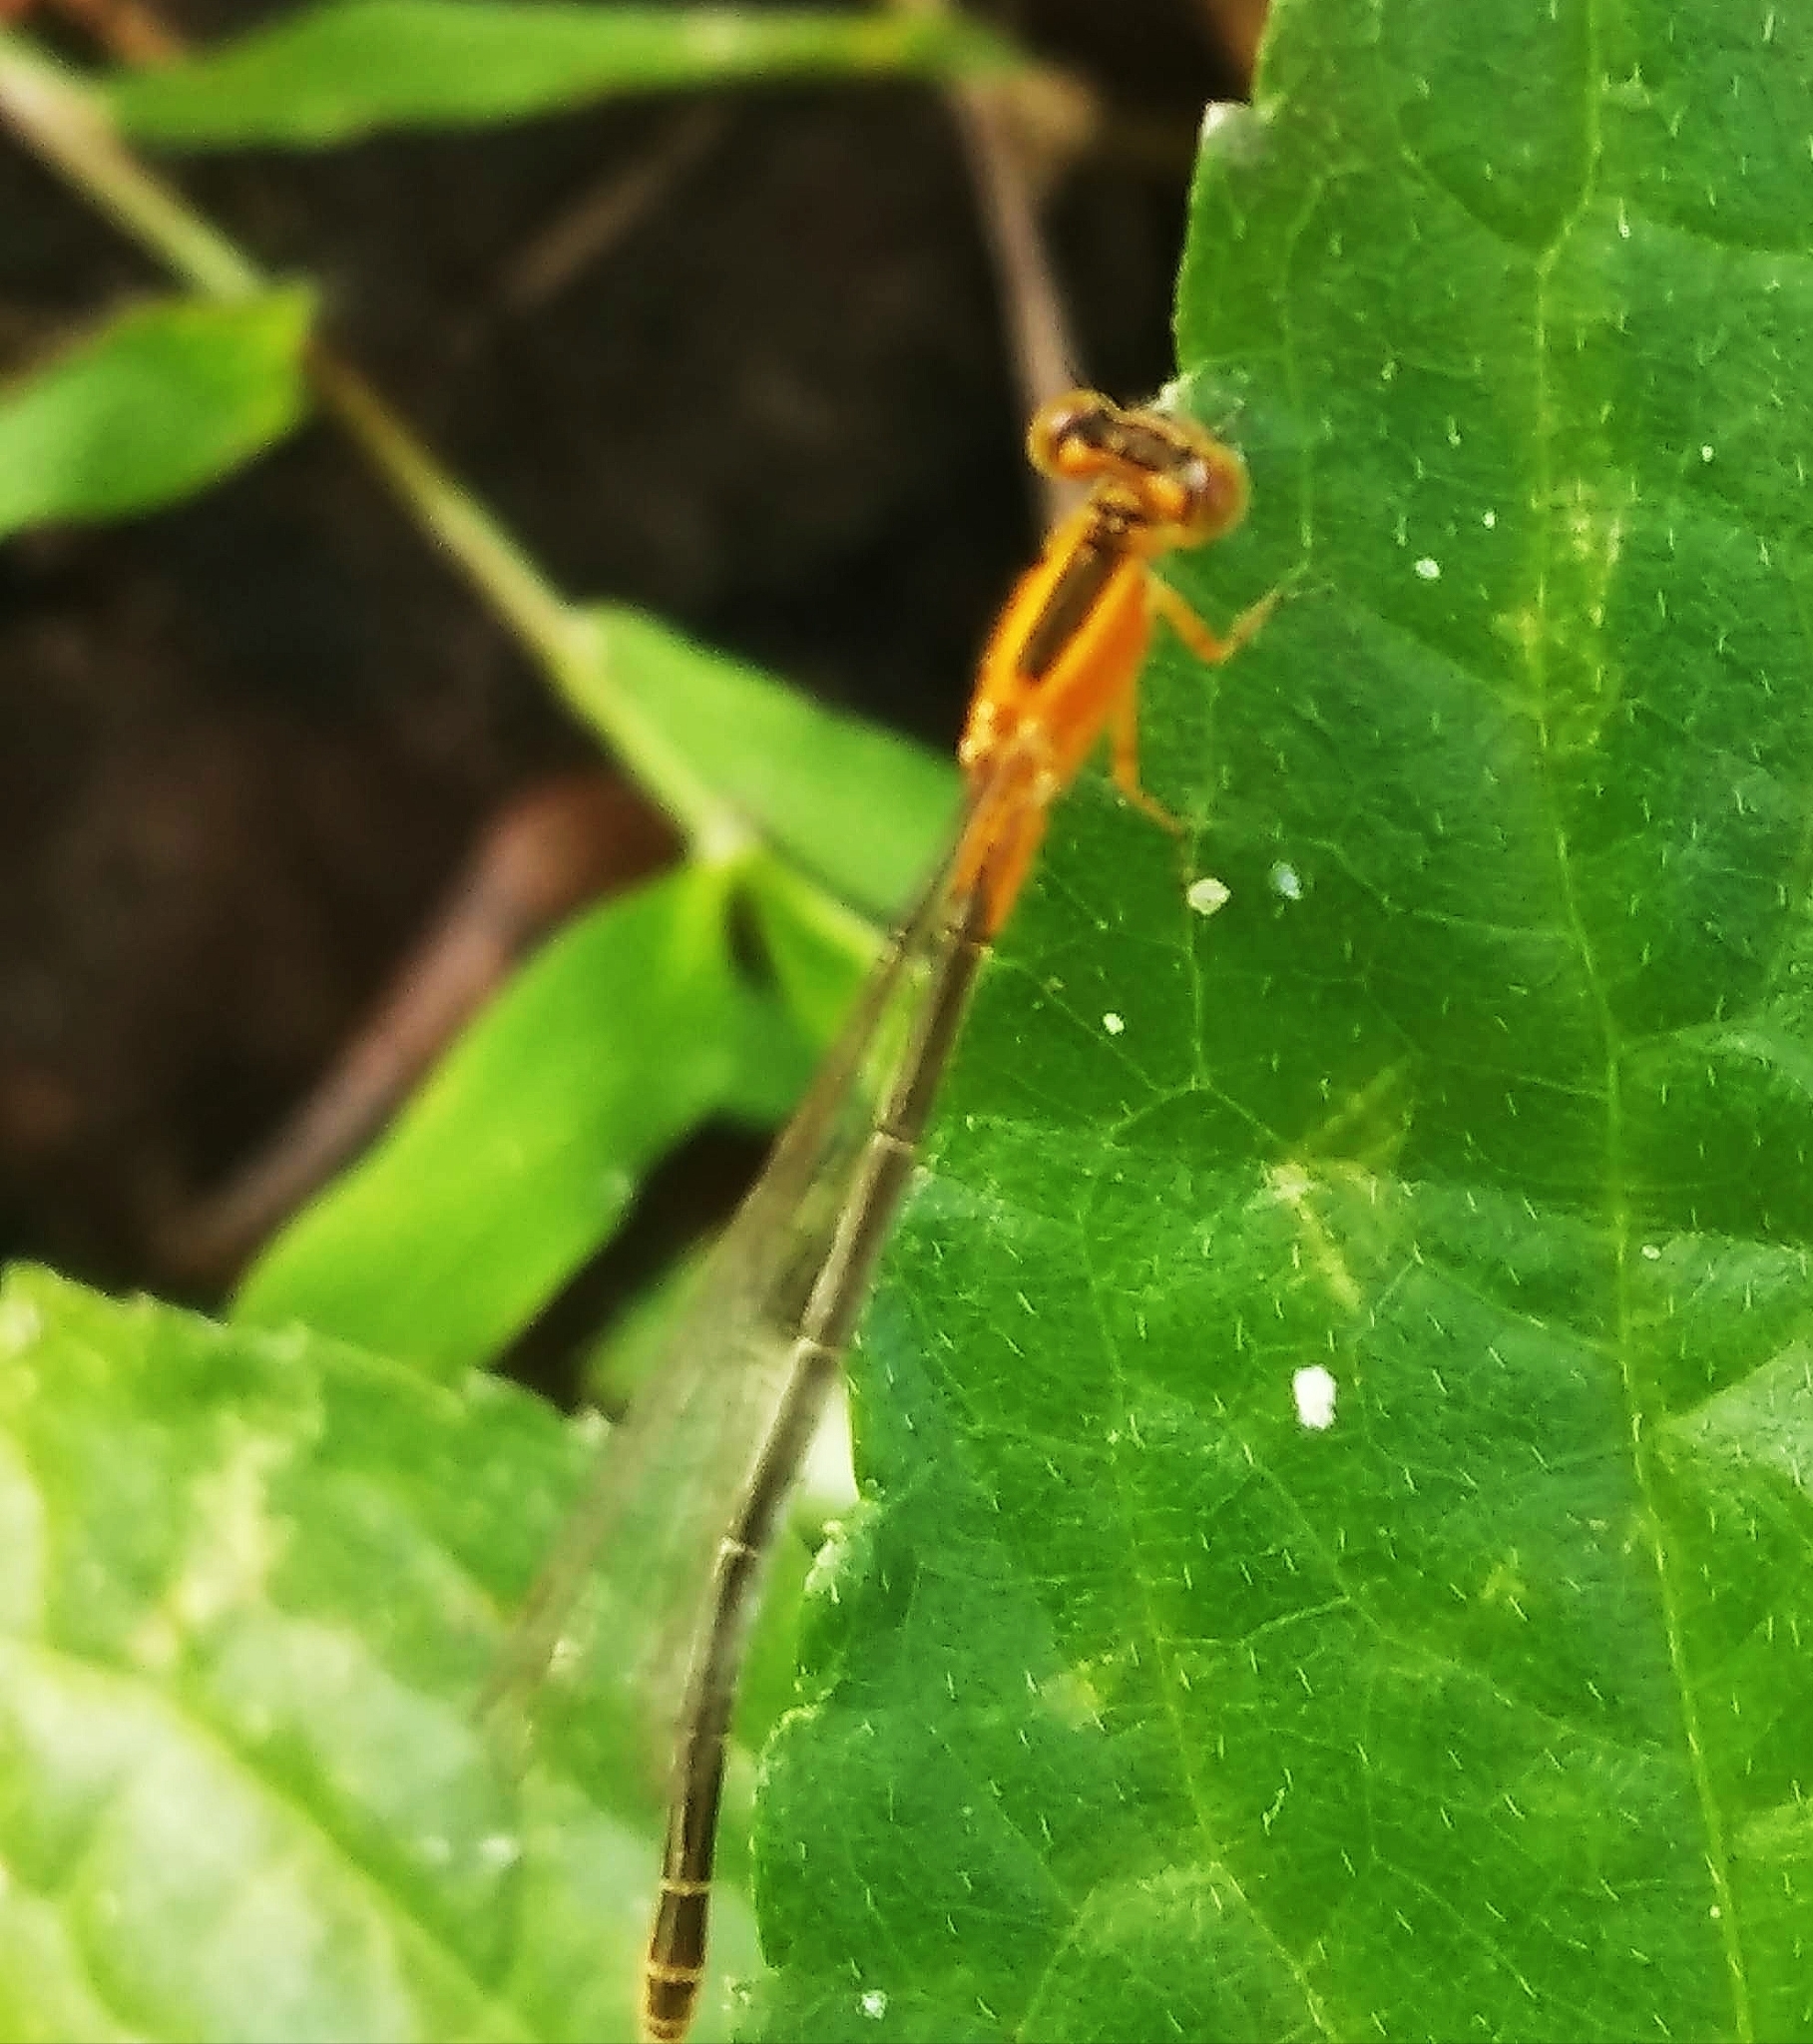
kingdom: Animalia
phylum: Arthropoda
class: Insecta
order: Odonata
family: Coenagrionidae
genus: Ischnura
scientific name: Ischnura senegalensis
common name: Tropical bluetail
